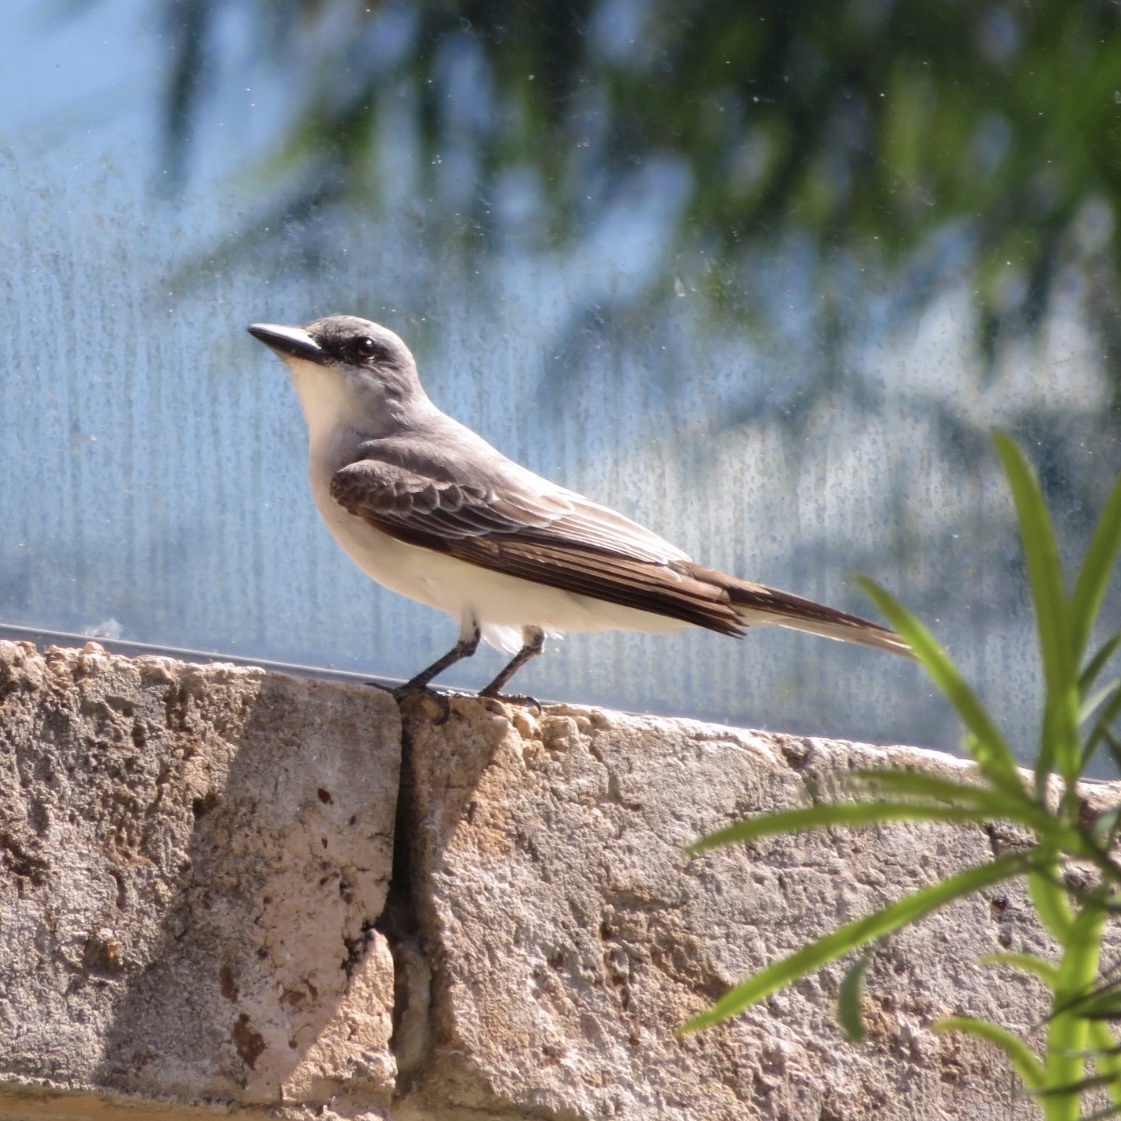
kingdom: Animalia
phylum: Chordata
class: Aves
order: Passeriformes
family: Tyrannidae
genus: Tyrannus
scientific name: Tyrannus dominicensis
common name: Gray kingbird
